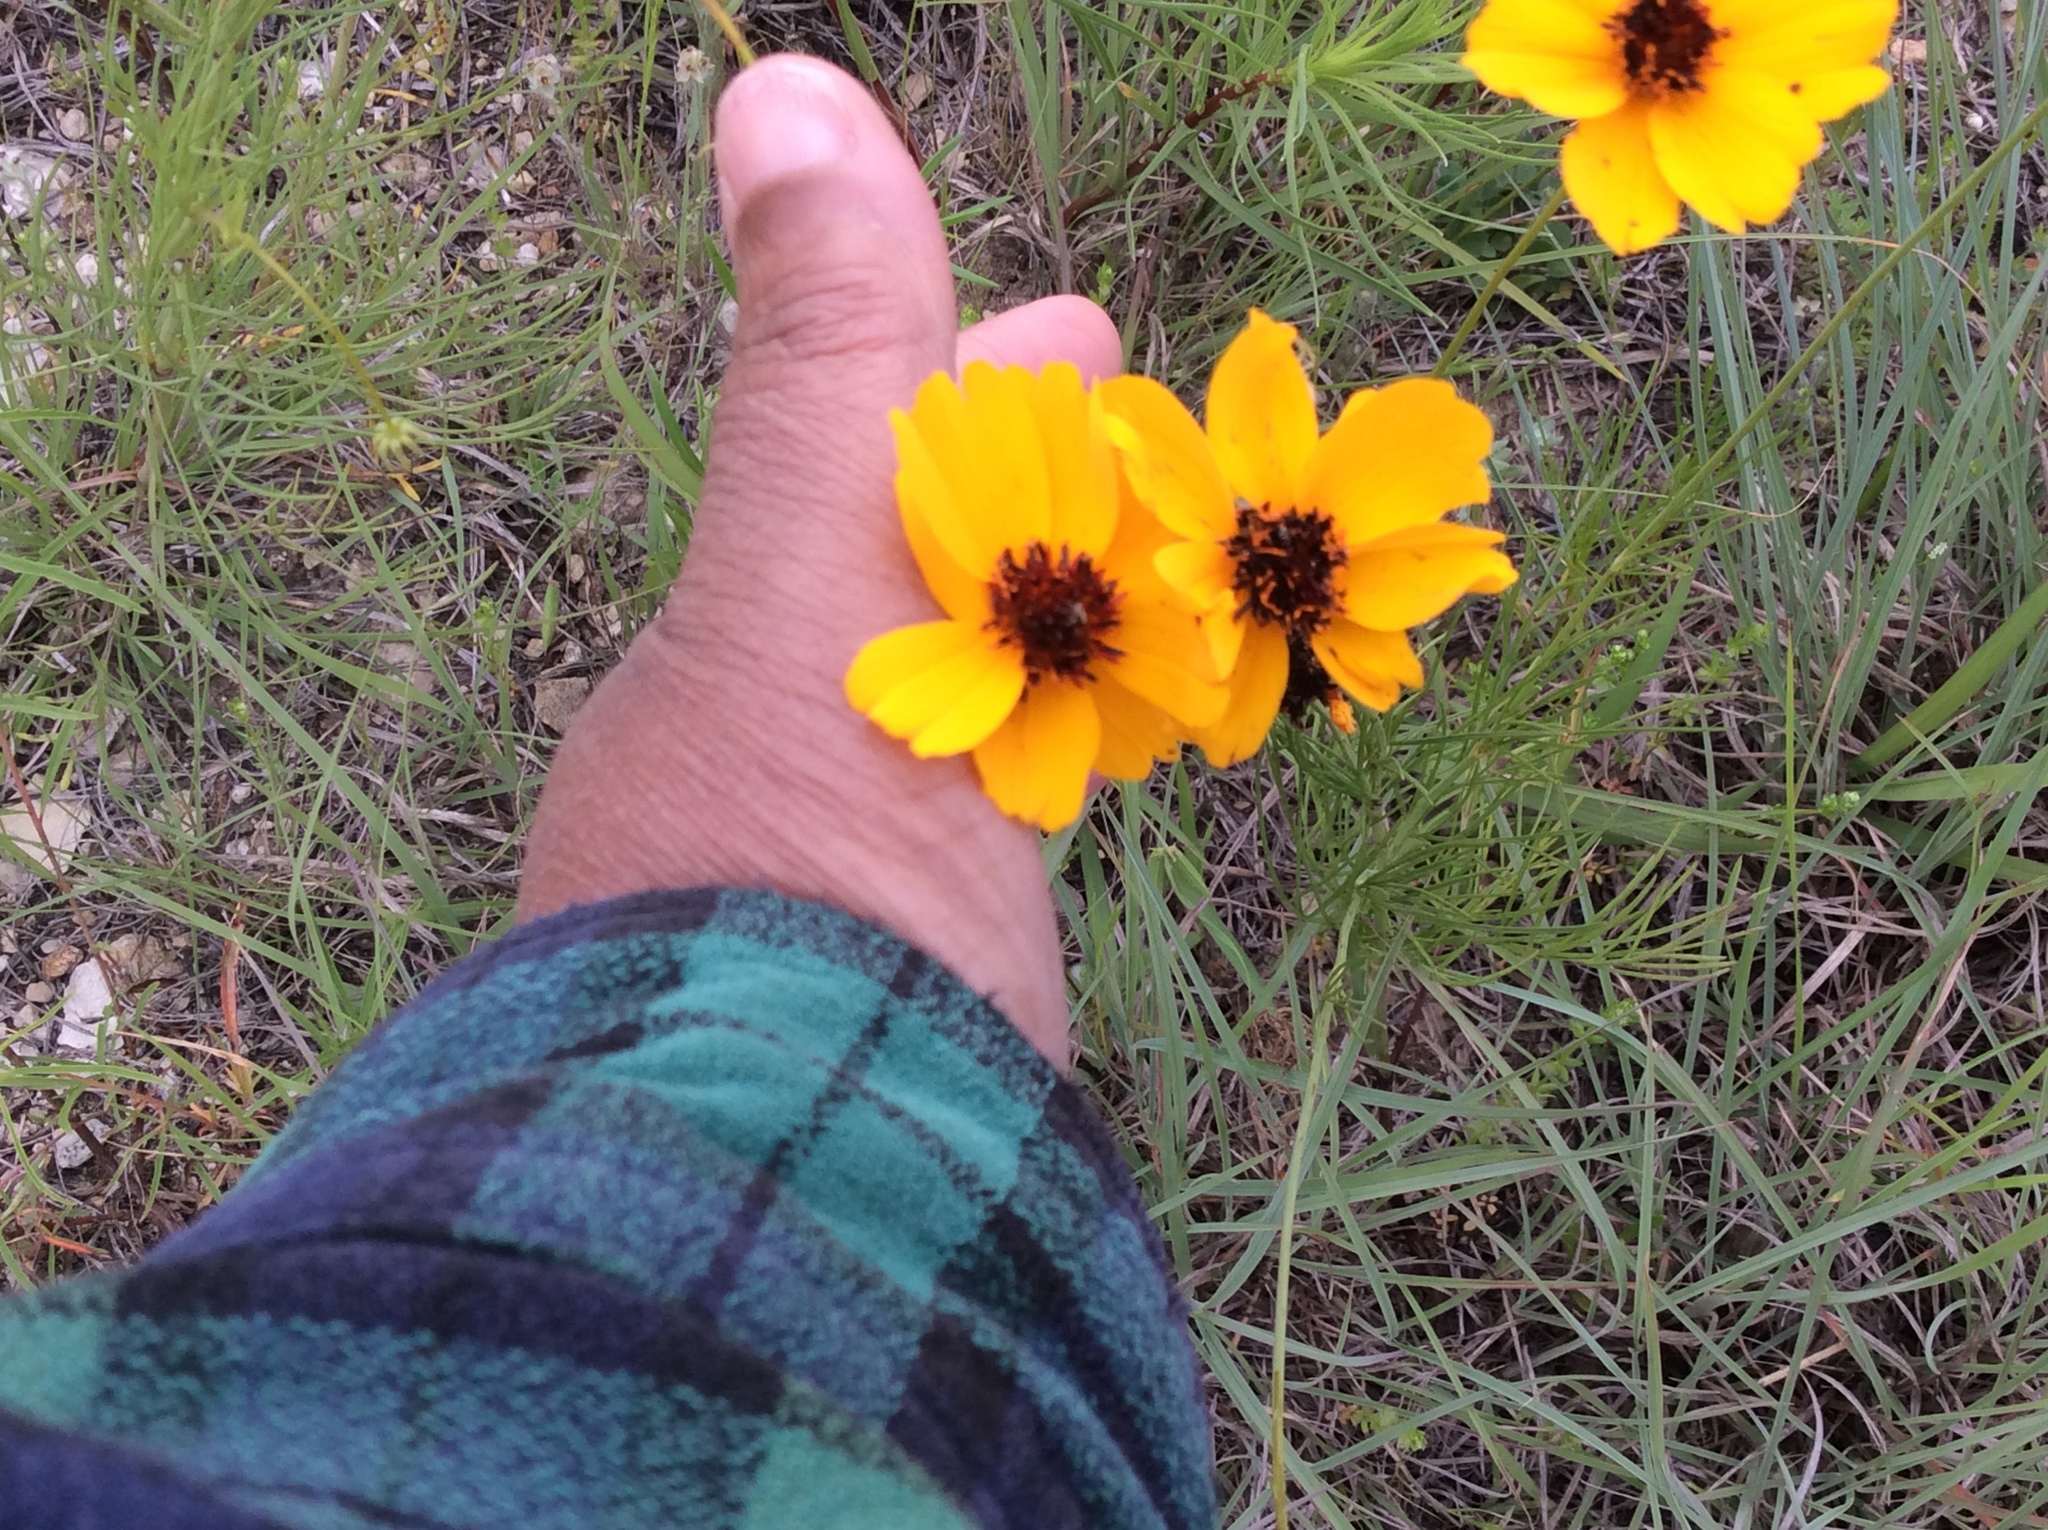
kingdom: Plantae
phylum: Tracheophyta
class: Magnoliopsida
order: Asterales
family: Asteraceae
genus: Thelesperma
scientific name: Thelesperma filifolium
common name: Stiff greenthread
